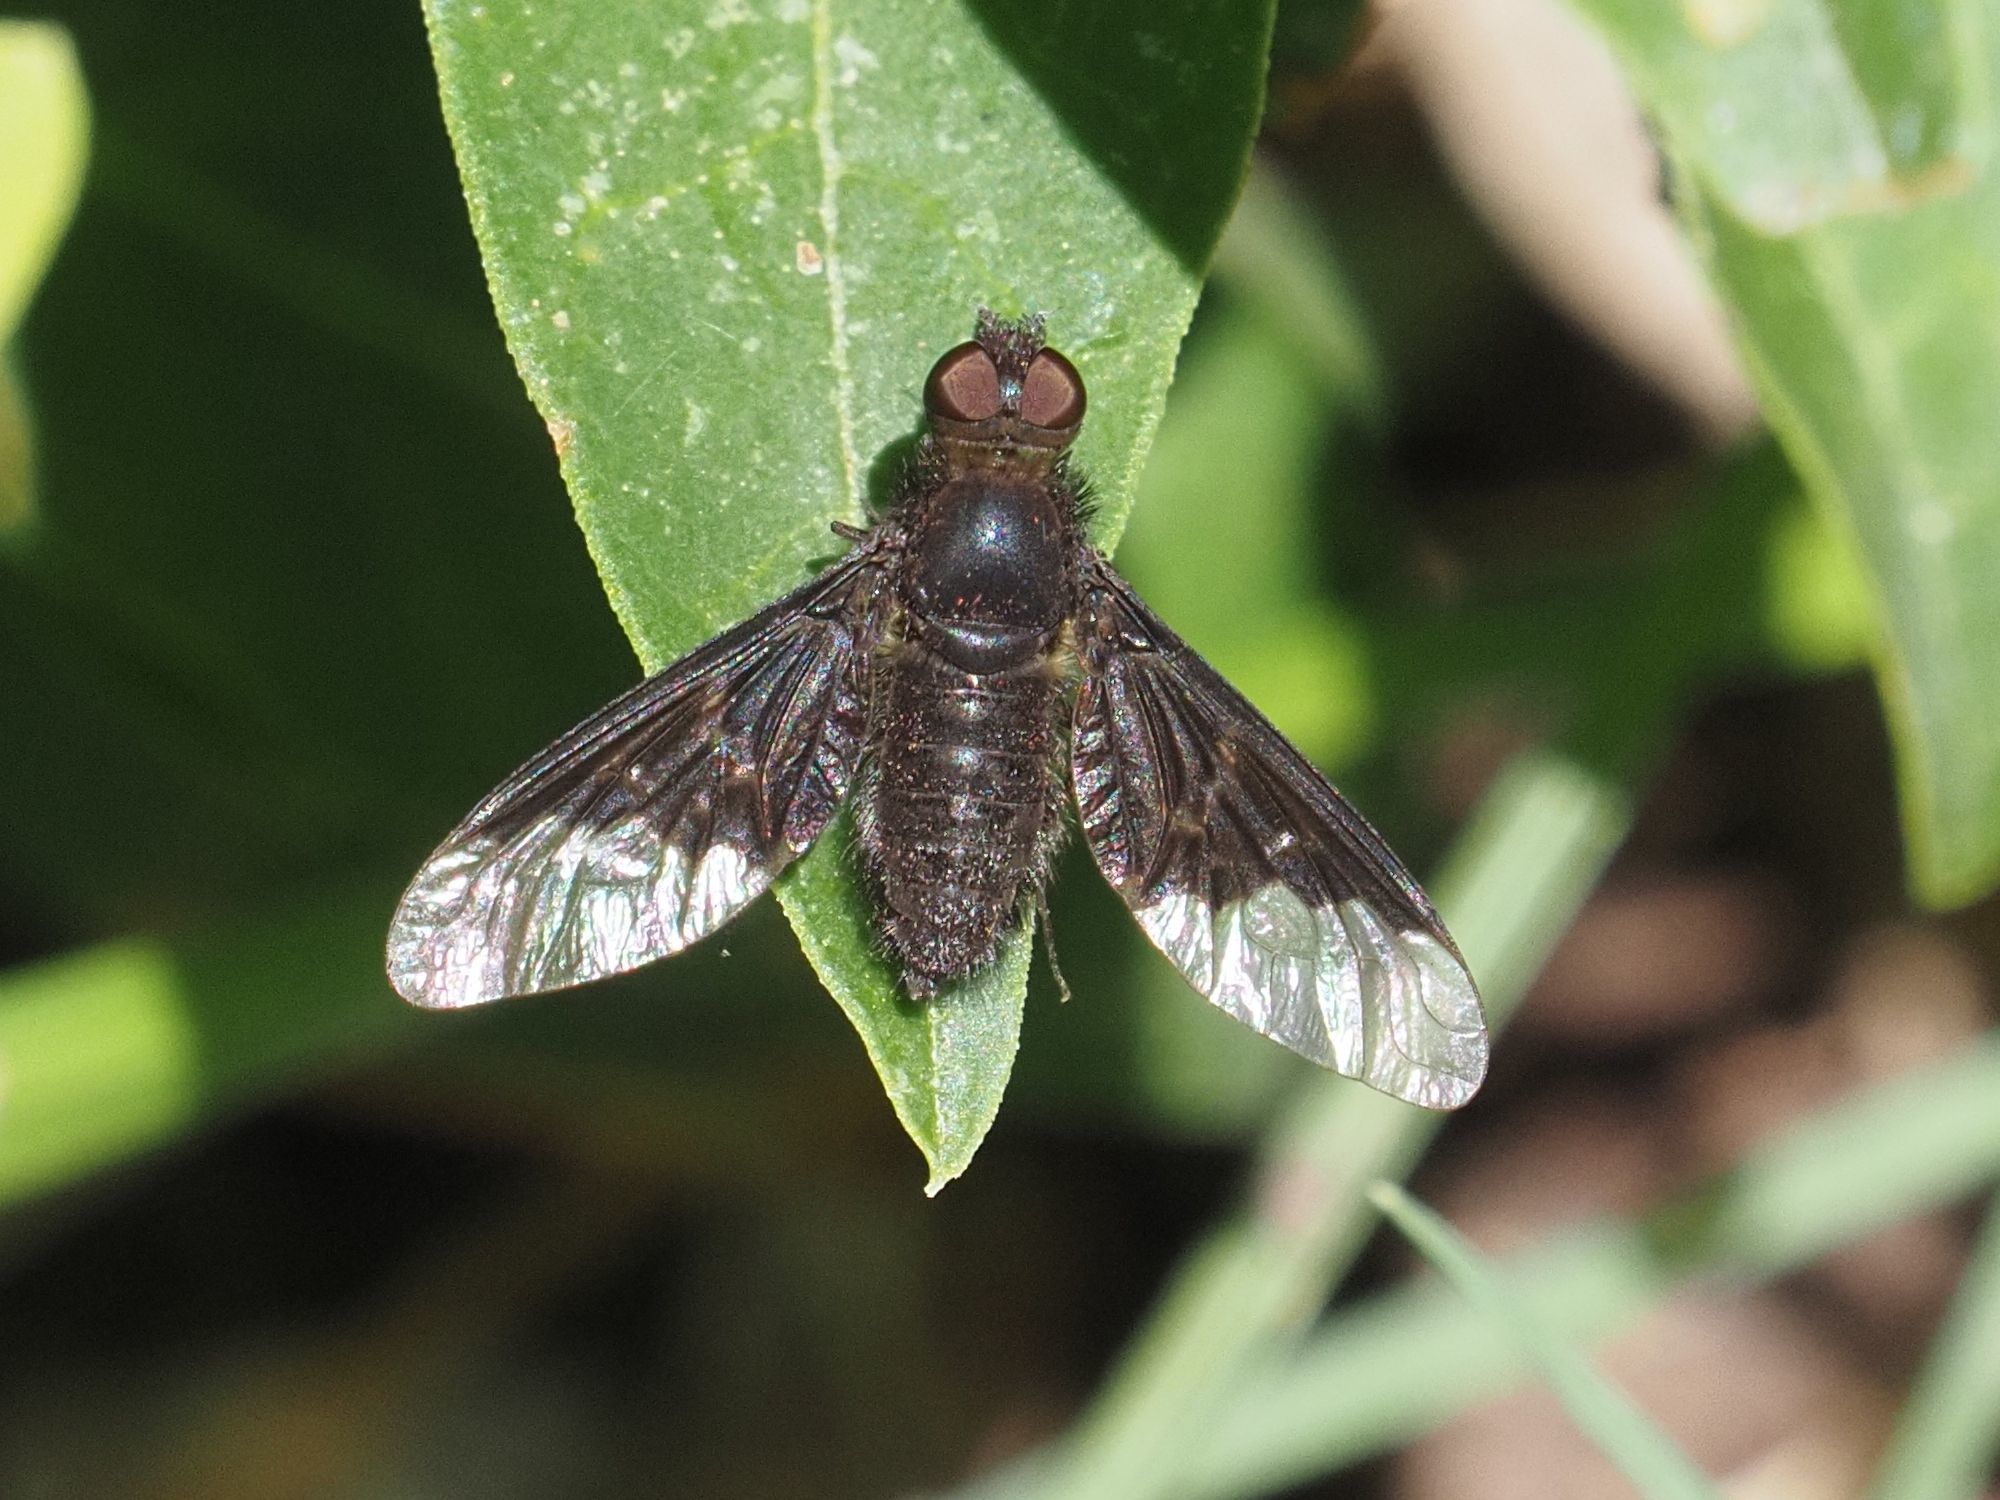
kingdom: Animalia
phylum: Arthropoda
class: Insecta
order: Diptera
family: Bombyliidae
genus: Hemipenthes
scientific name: Hemipenthes morio
